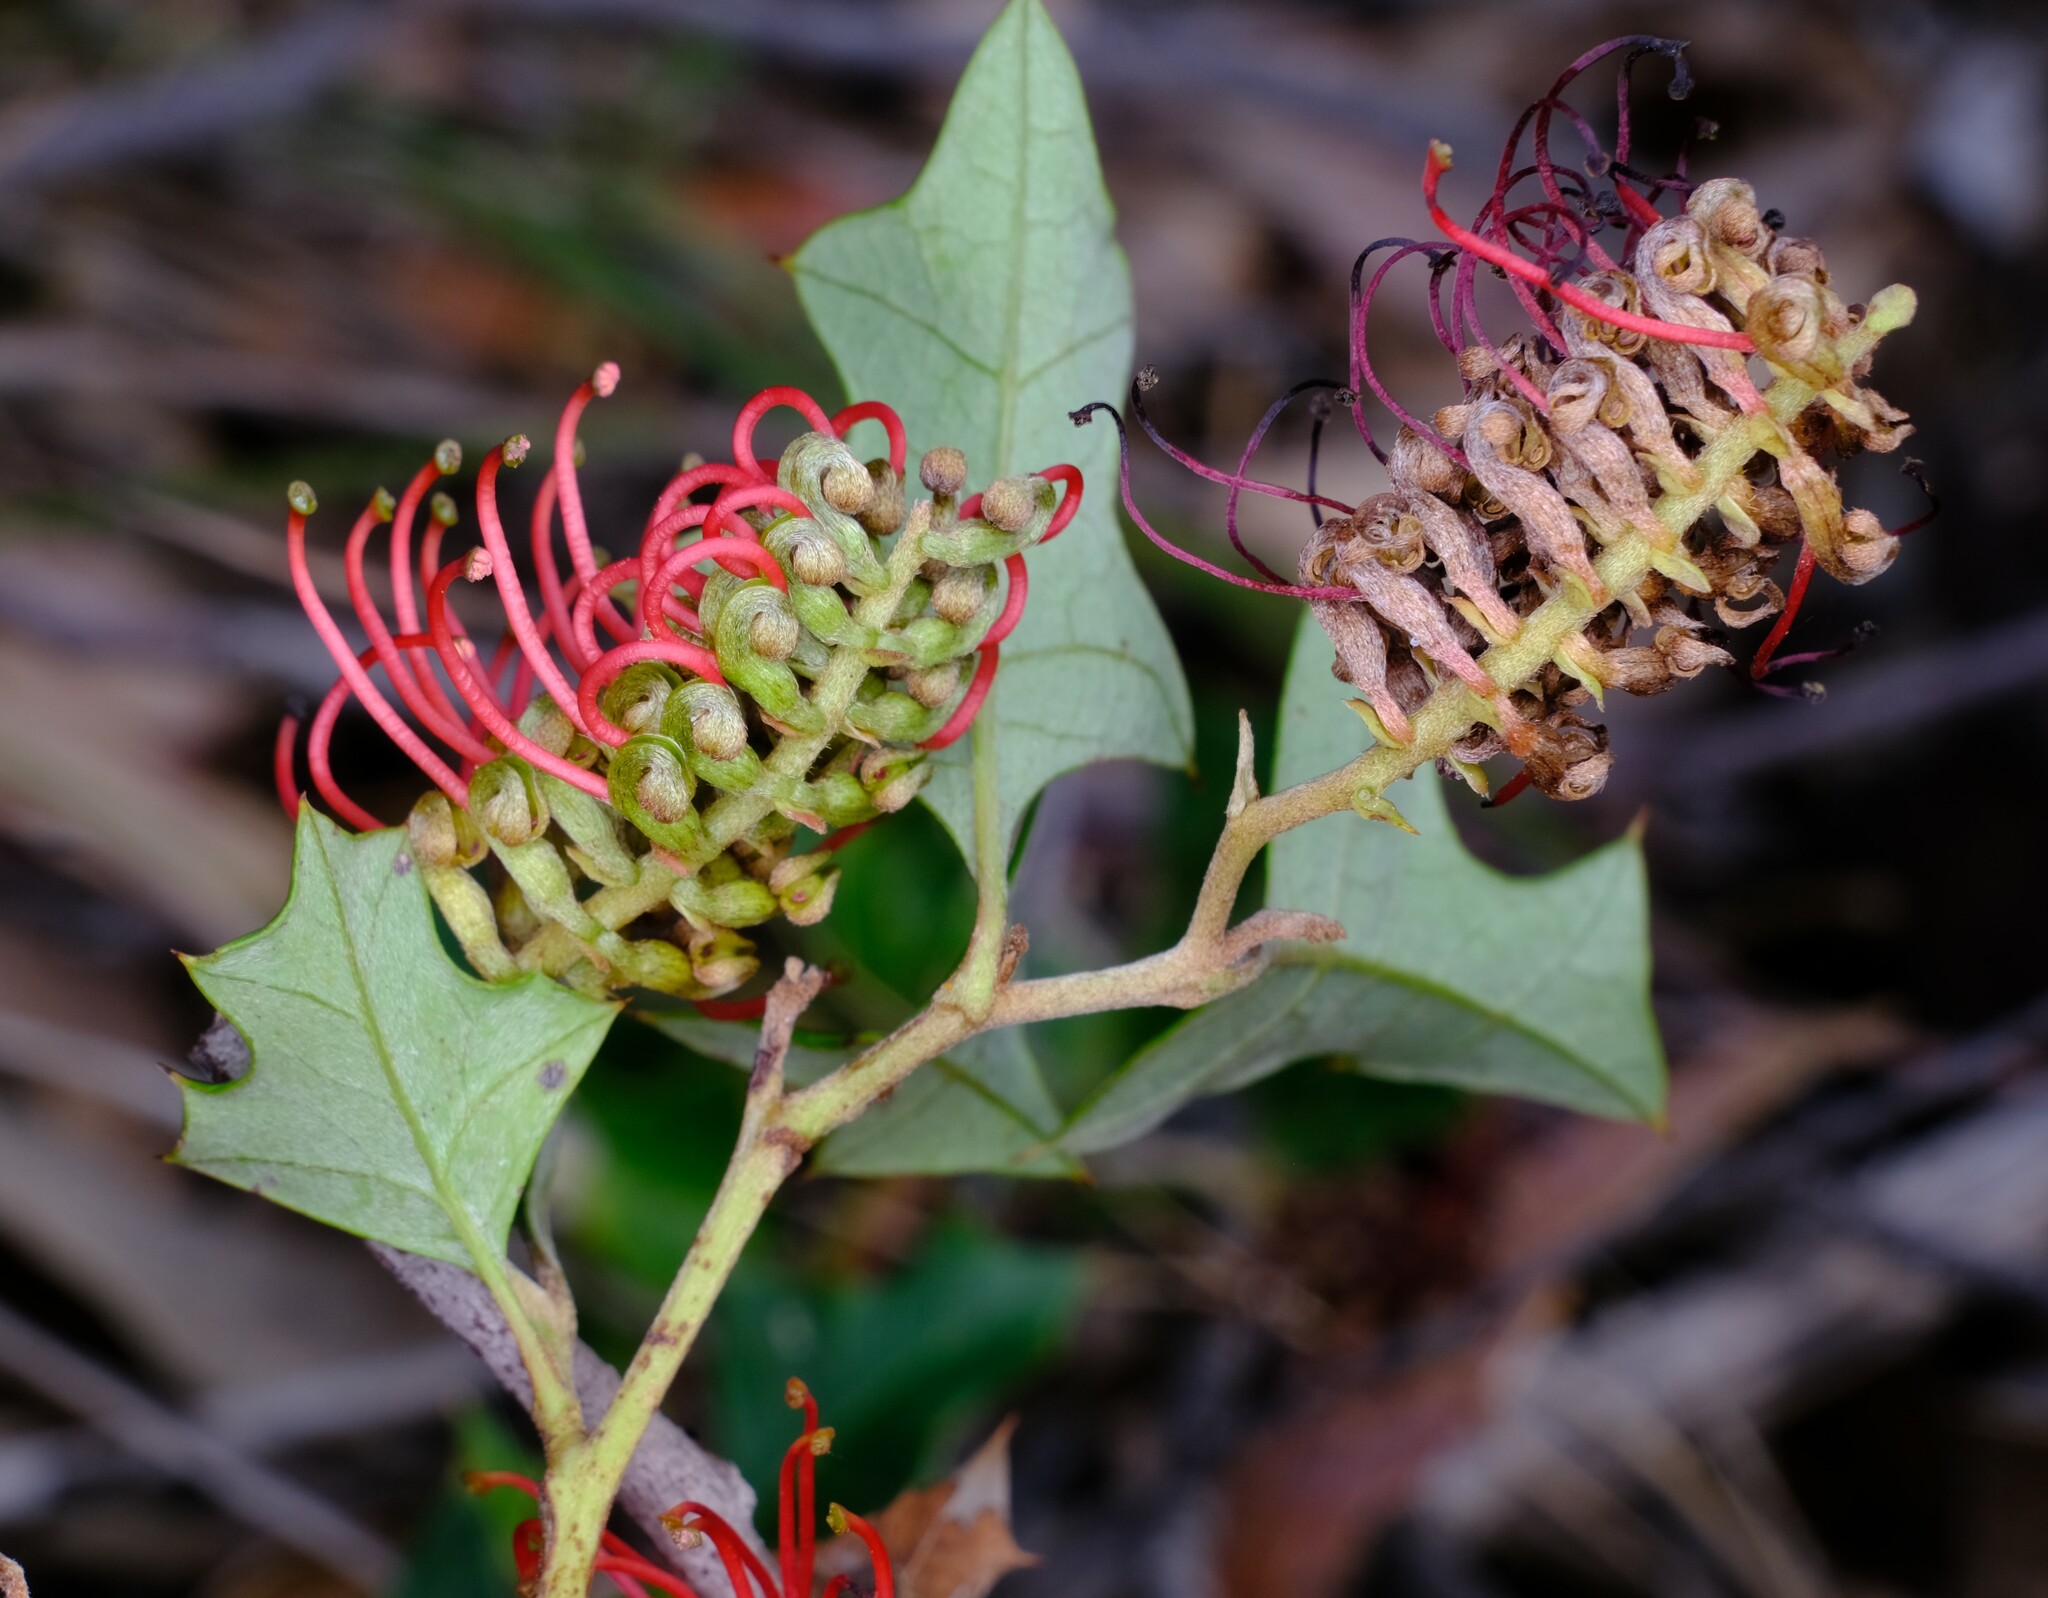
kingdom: Plantae
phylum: Tracheophyta
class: Magnoliopsida
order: Proteales
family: Proteaceae
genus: Grevillea
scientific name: Grevillea steiglitziana
